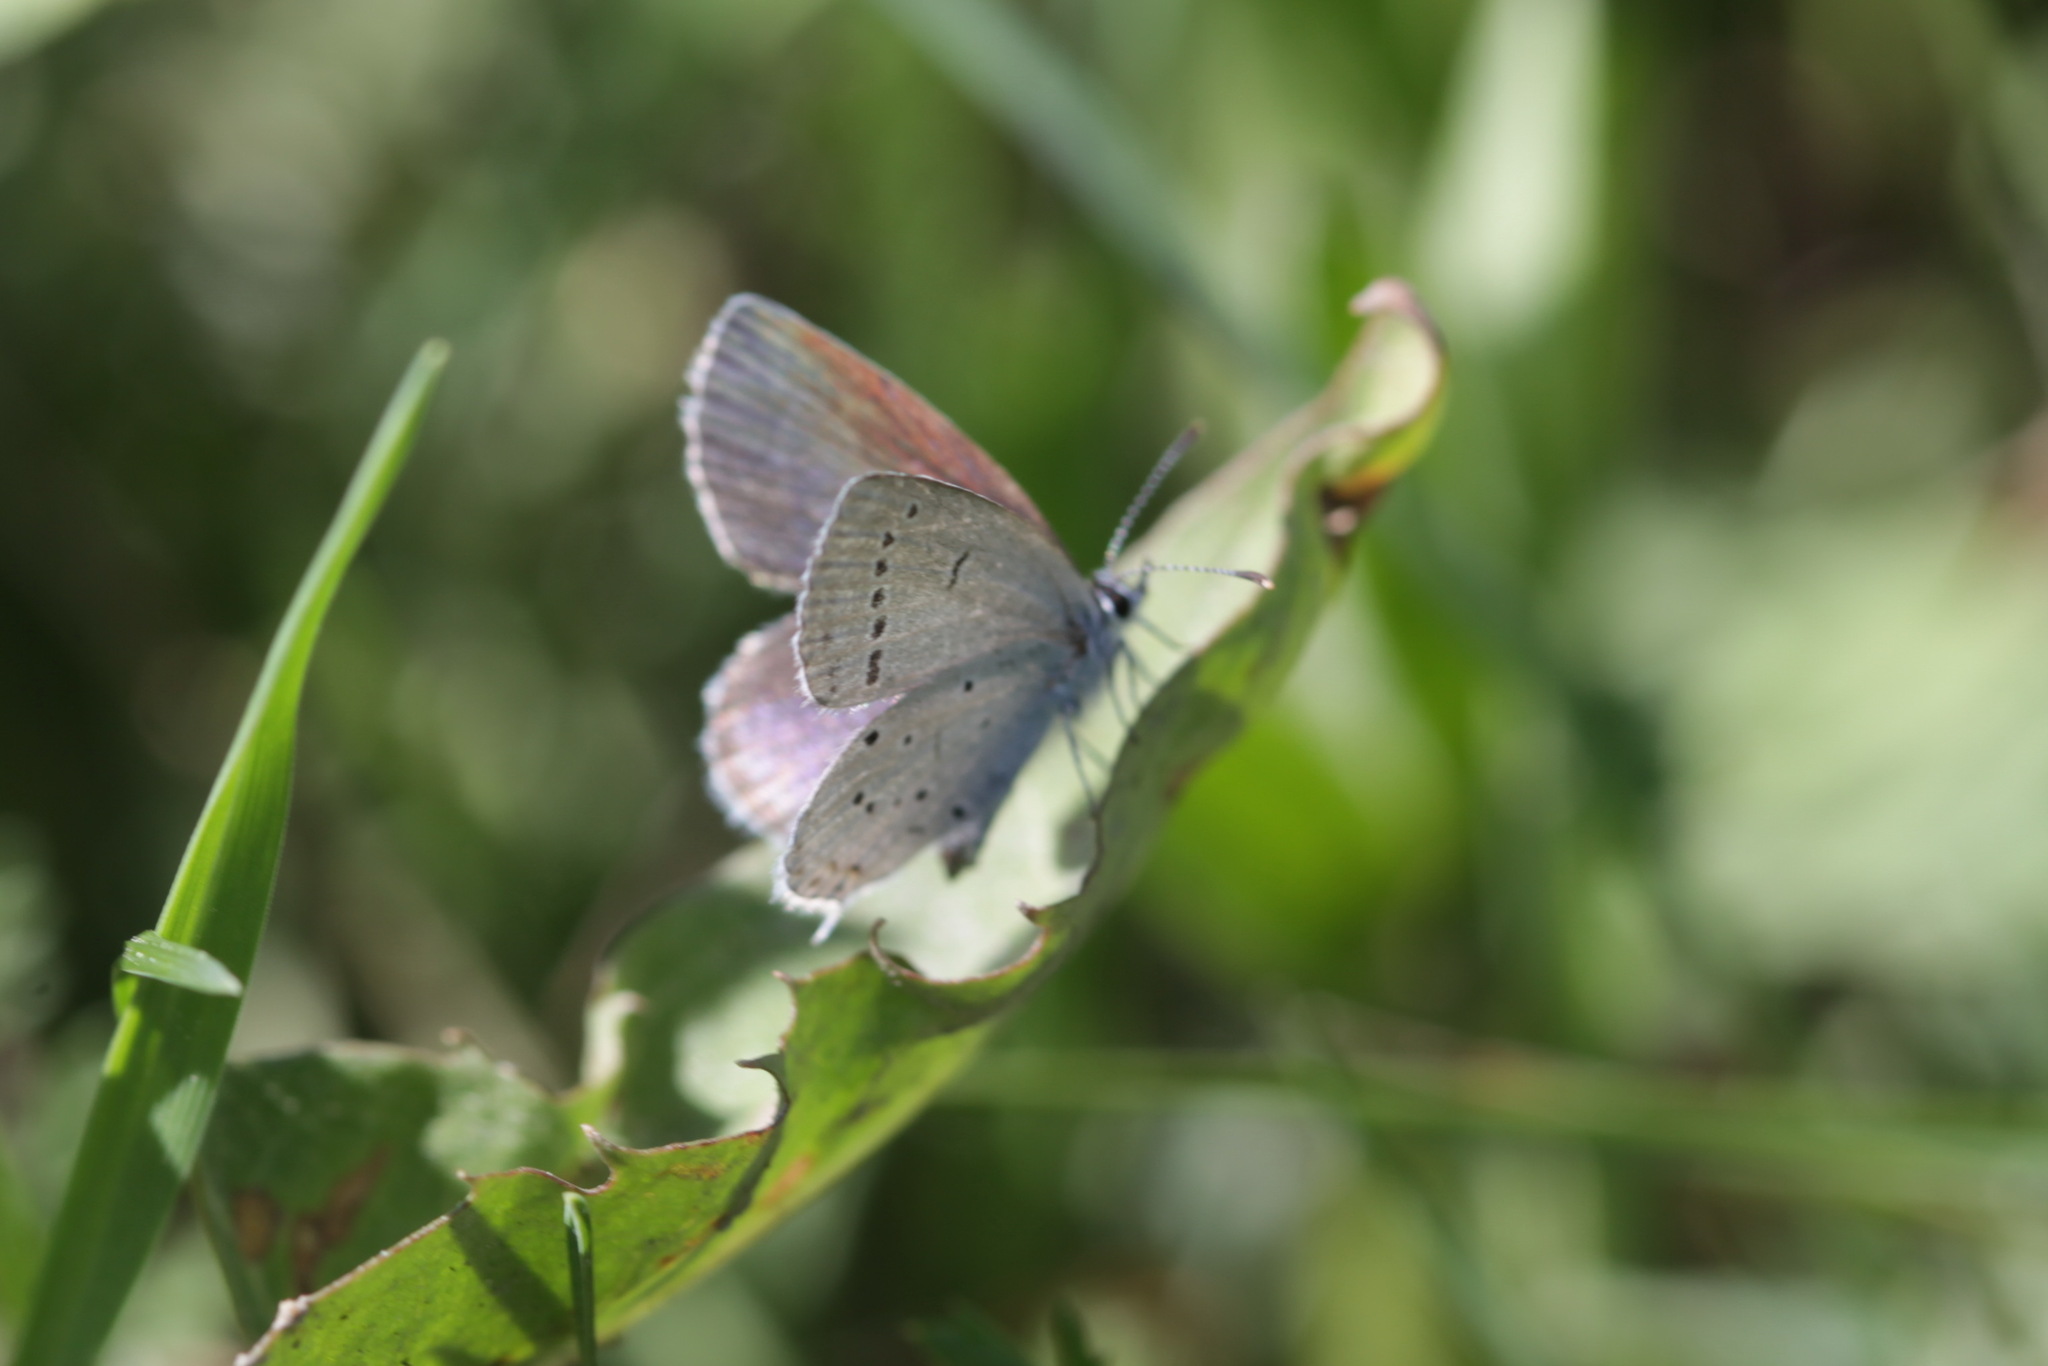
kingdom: Animalia
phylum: Arthropoda
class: Insecta
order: Lepidoptera
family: Lycaenidae
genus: Elkalyce
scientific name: Elkalyce argiades
